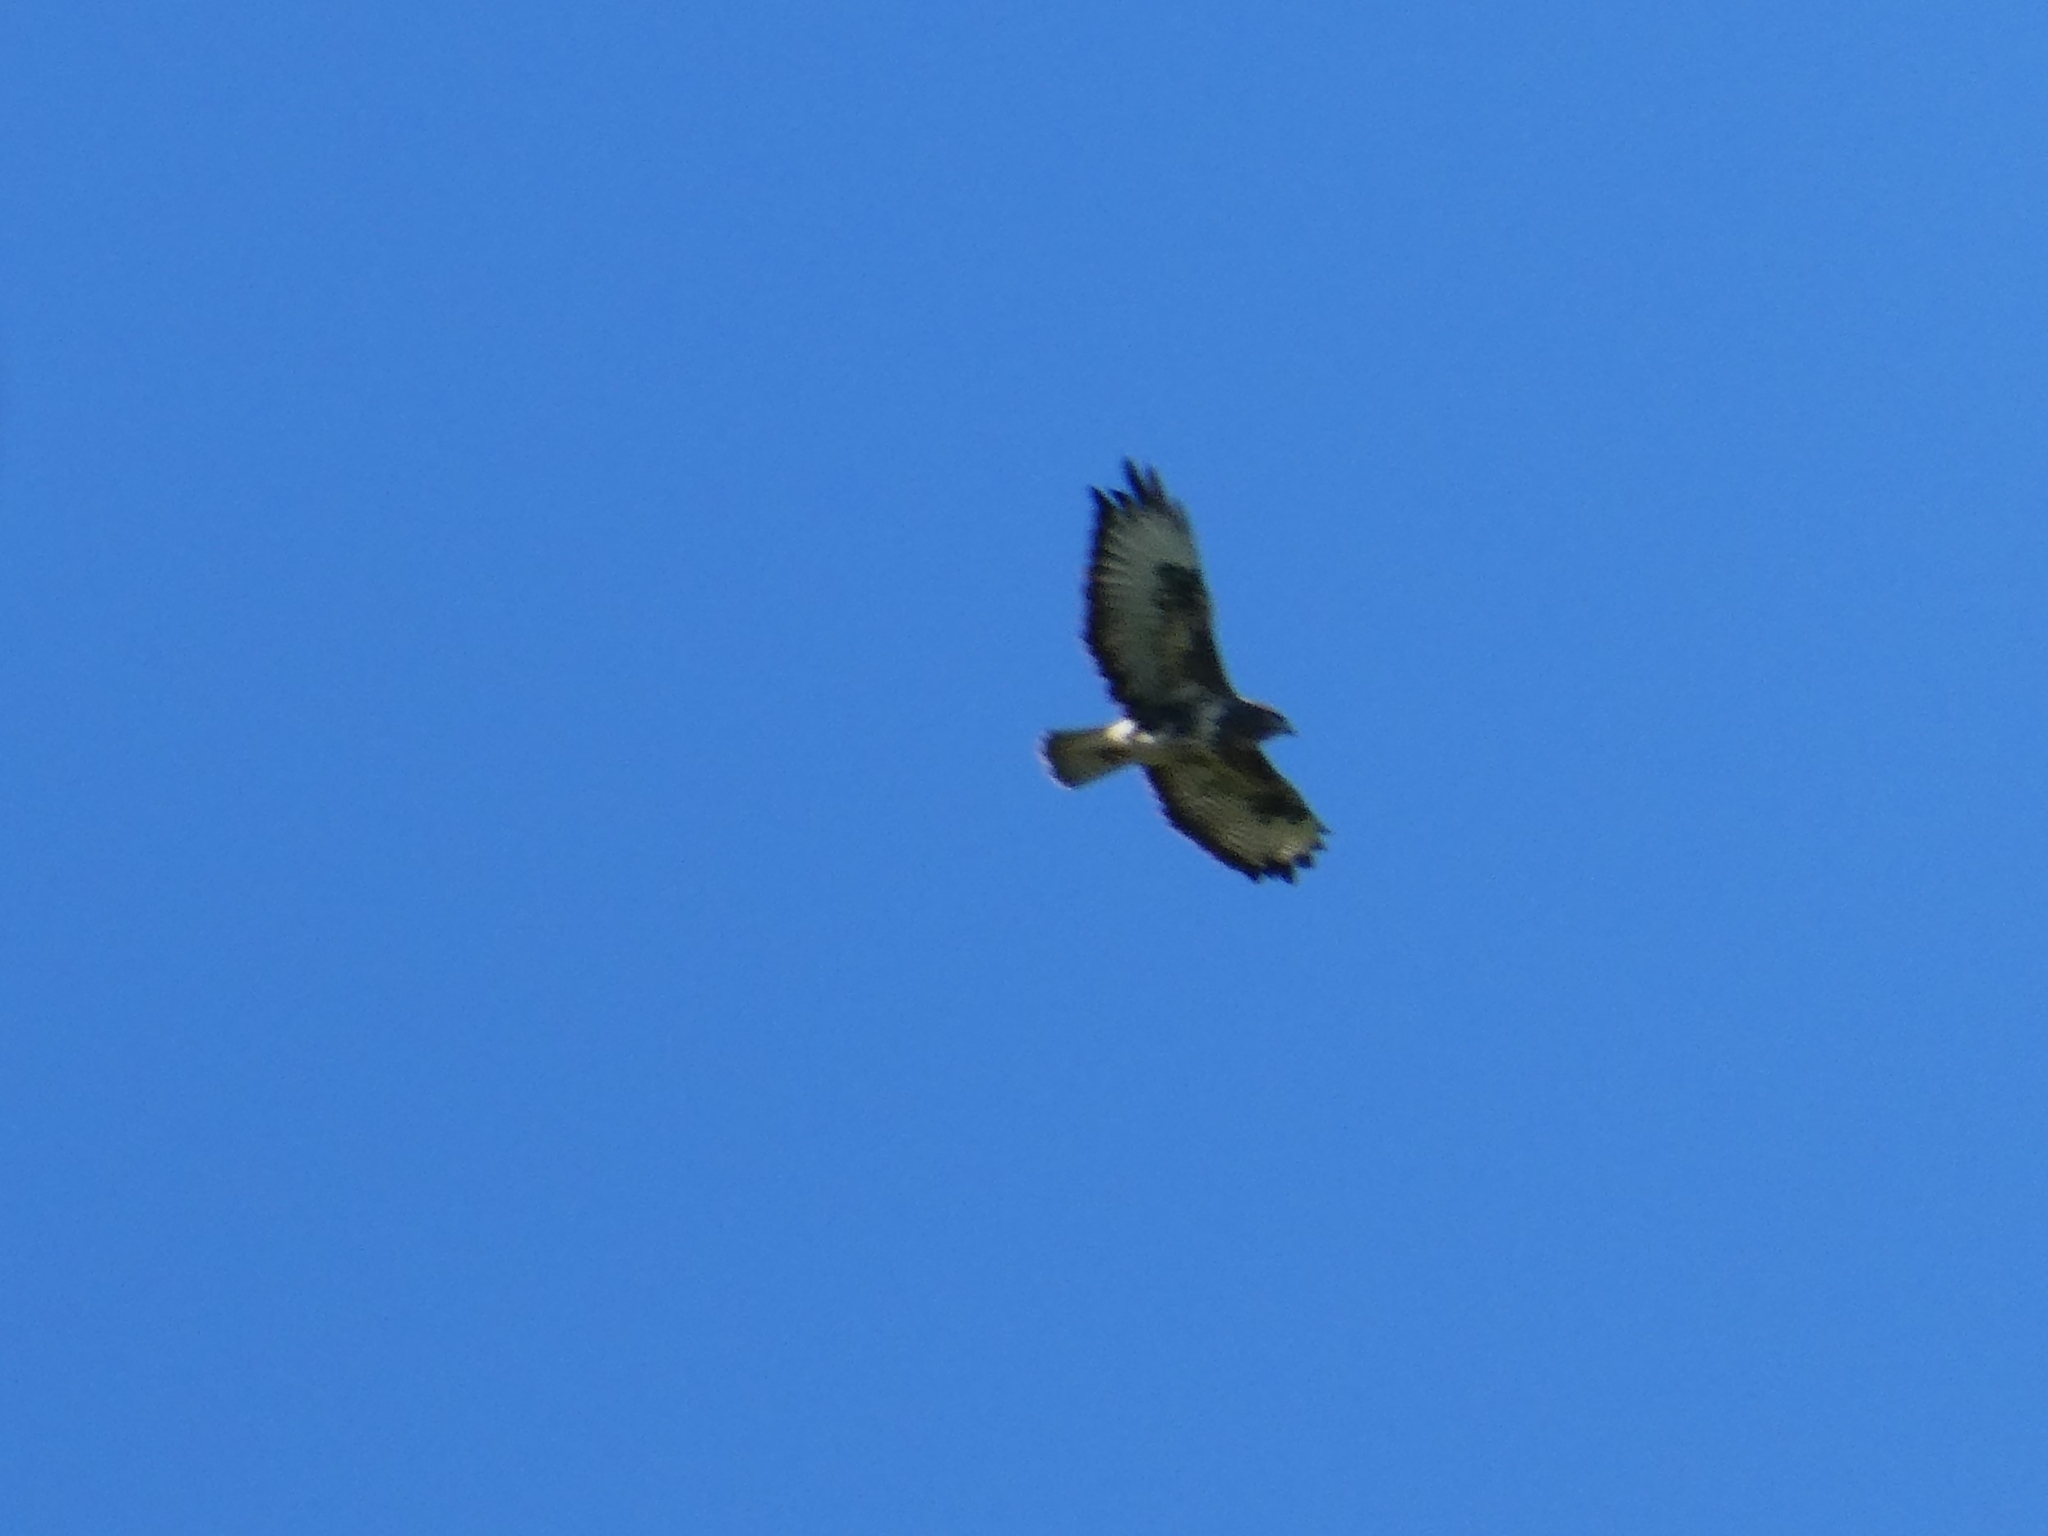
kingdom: Animalia
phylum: Chordata
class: Aves
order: Accipitriformes
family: Accipitridae
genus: Buteo
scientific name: Buteo buteo
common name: Common buzzard
